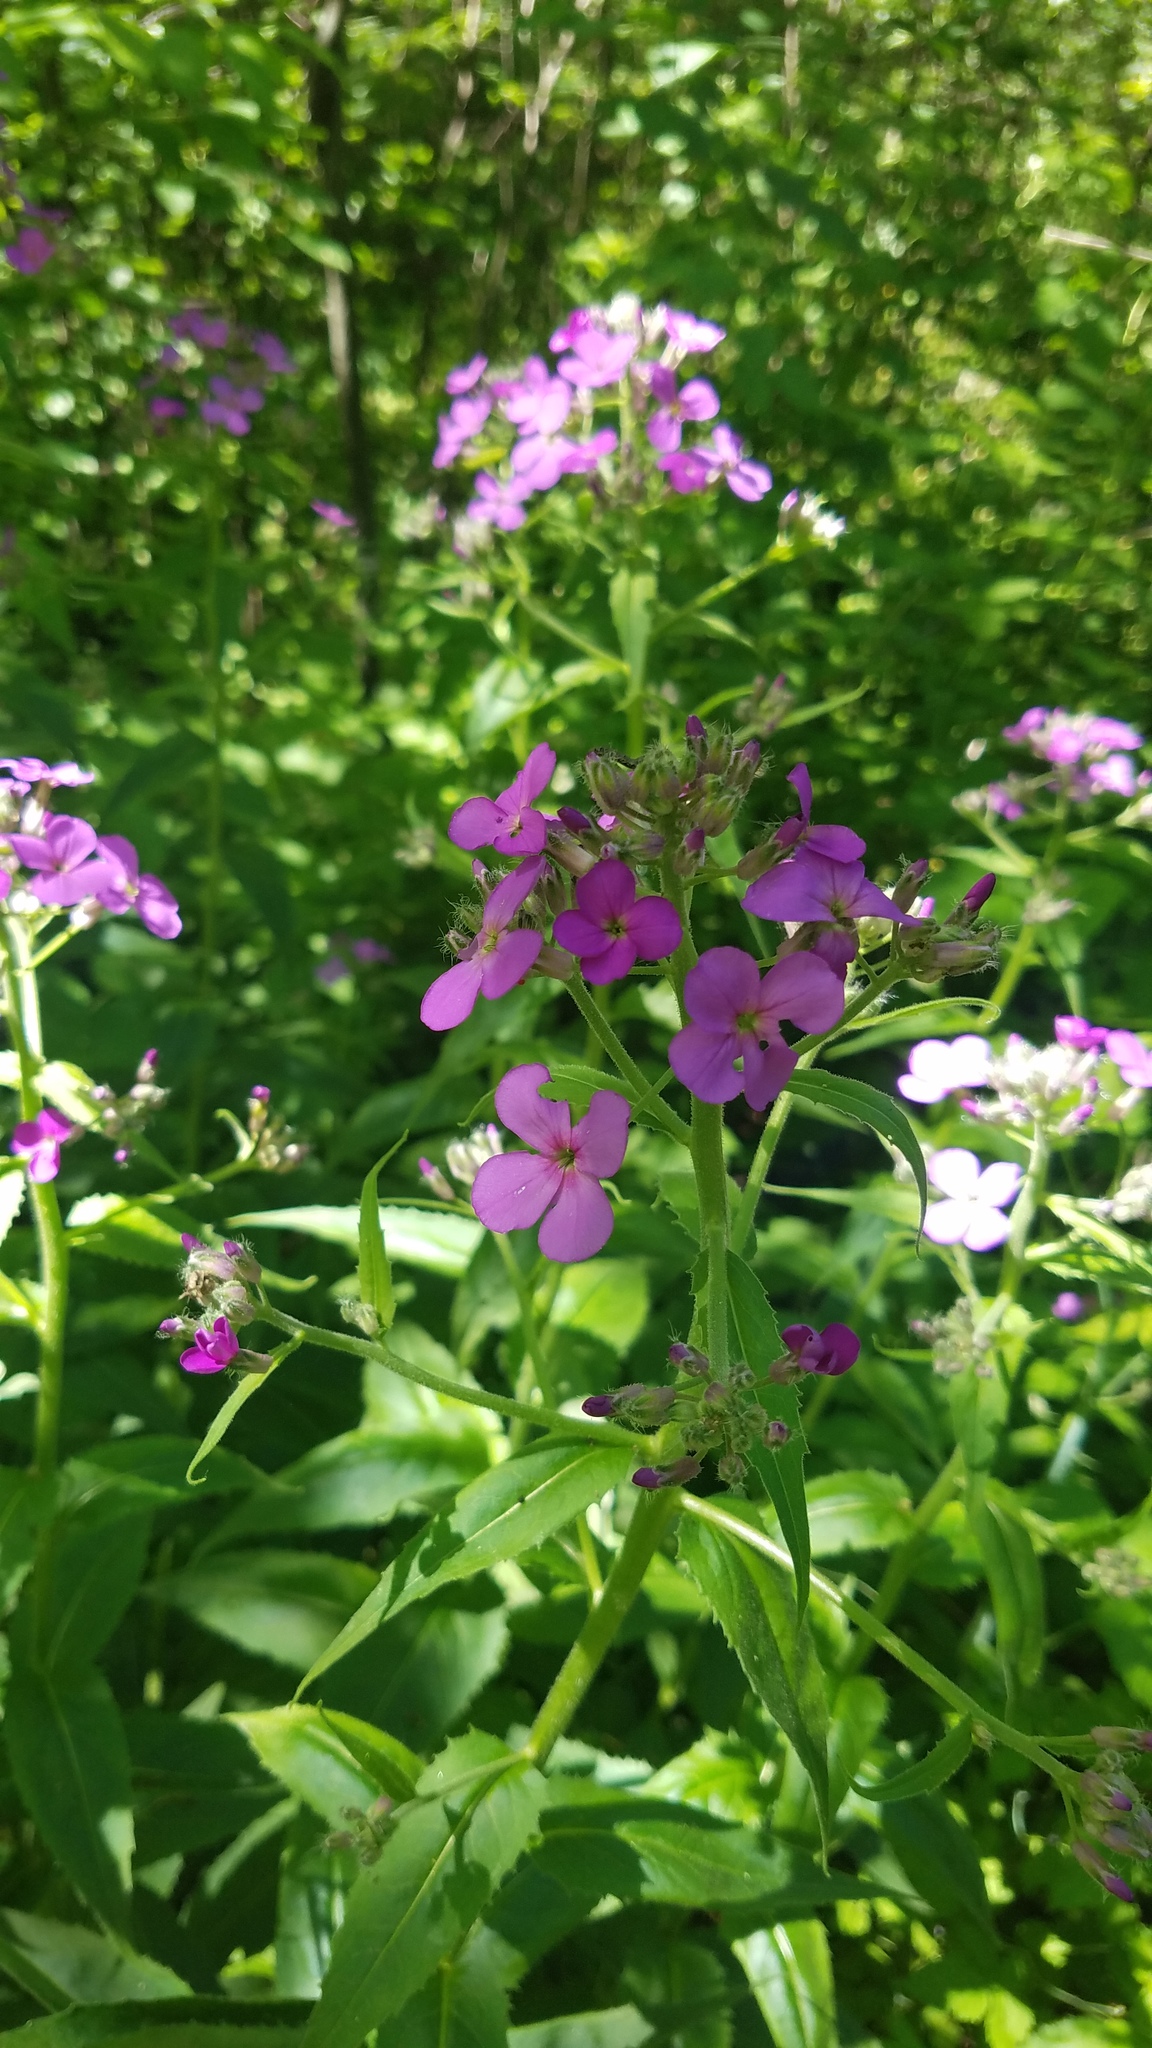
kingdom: Plantae
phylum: Tracheophyta
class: Magnoliopsida
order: Brassicales
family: Brassicaceae
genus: Hesperis
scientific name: Hesperis matronalis
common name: Dame's-violet
